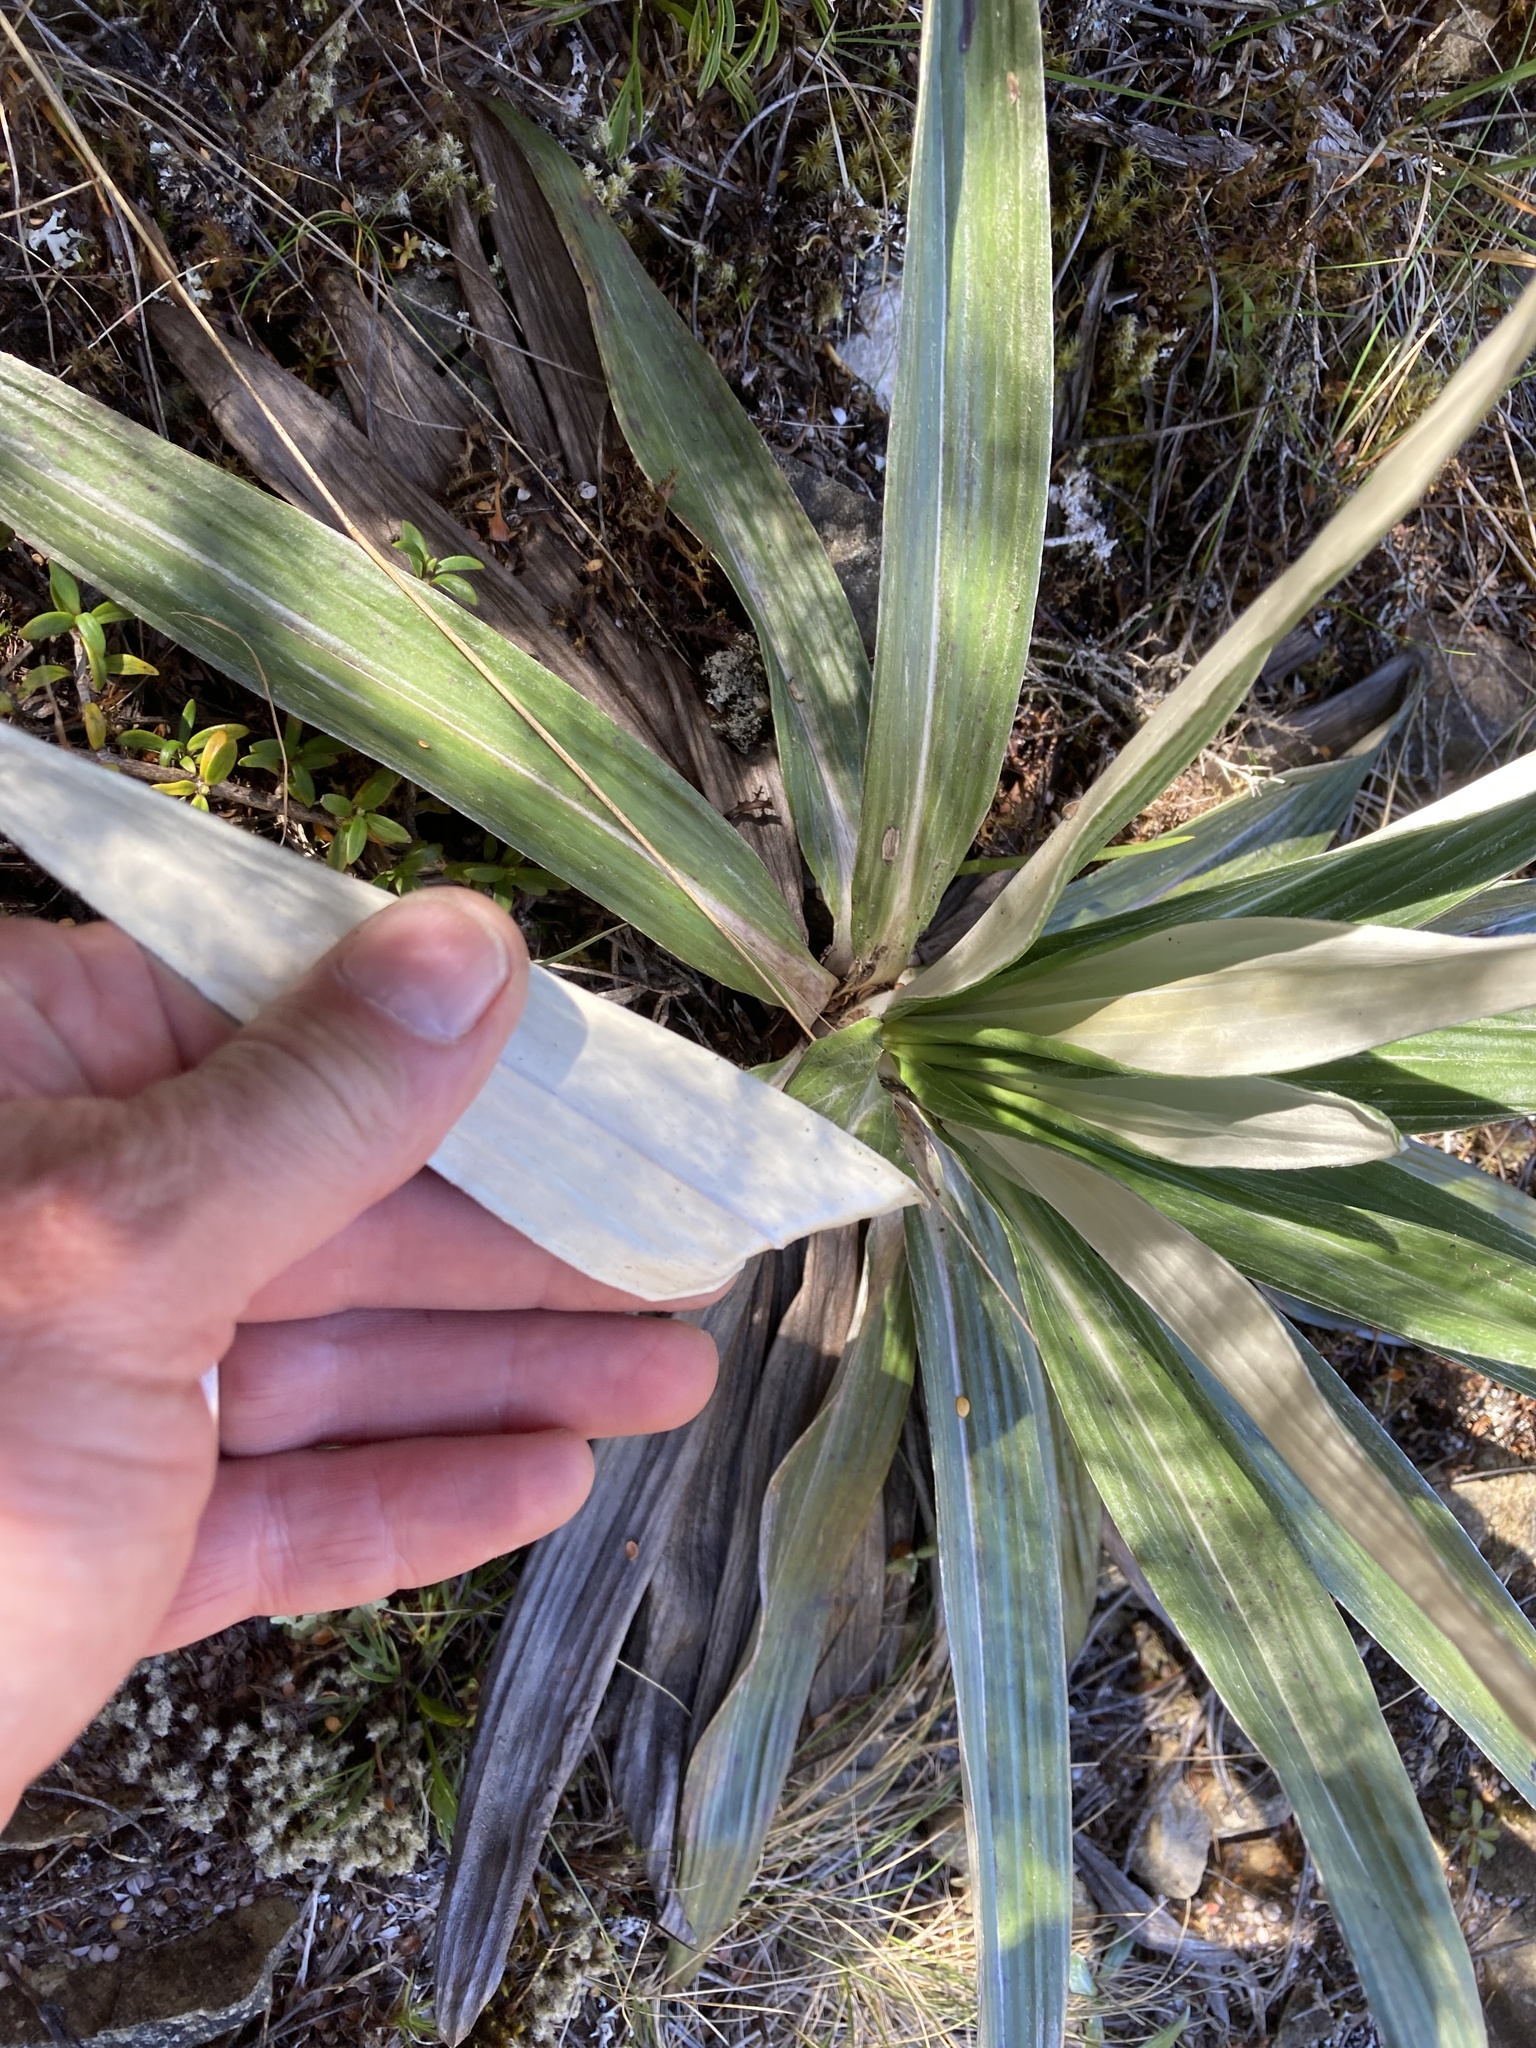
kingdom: Plantae
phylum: Tracheophyta
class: Magnoliopsida
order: Asterales
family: Asteraceae
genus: Celmisia
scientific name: Celmisia semicordata
